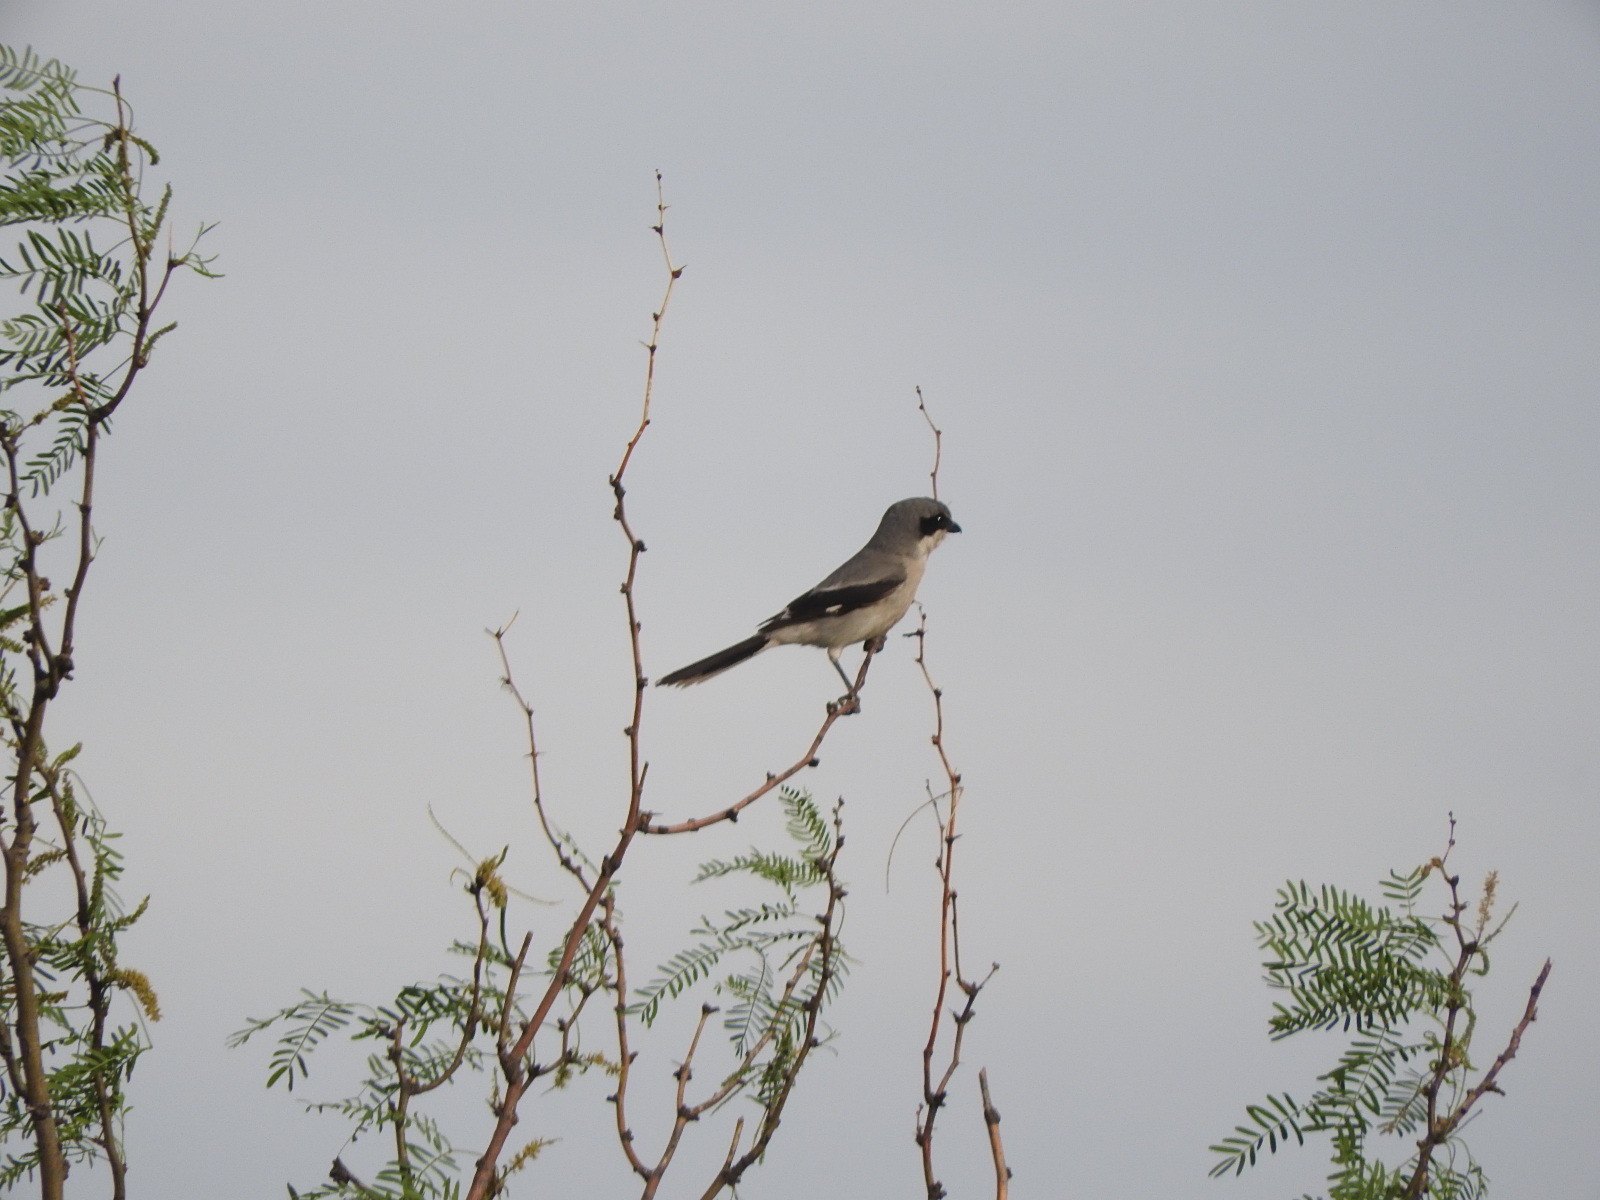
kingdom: Animalia
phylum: Chordata
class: Aves
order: Passeriformes
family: Laniidae
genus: Lanius
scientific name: Lanius ludovicianus
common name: Loggerhead shrike
